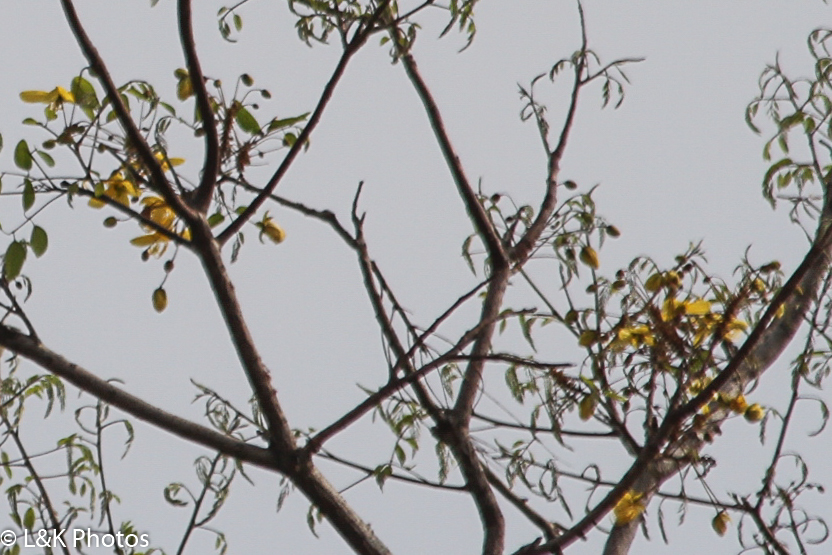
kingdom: Plantae
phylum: Tracheophyta
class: Magnoliopsida
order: Fabales
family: Fabaceae
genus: Cassia
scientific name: Cassia abbreviata
